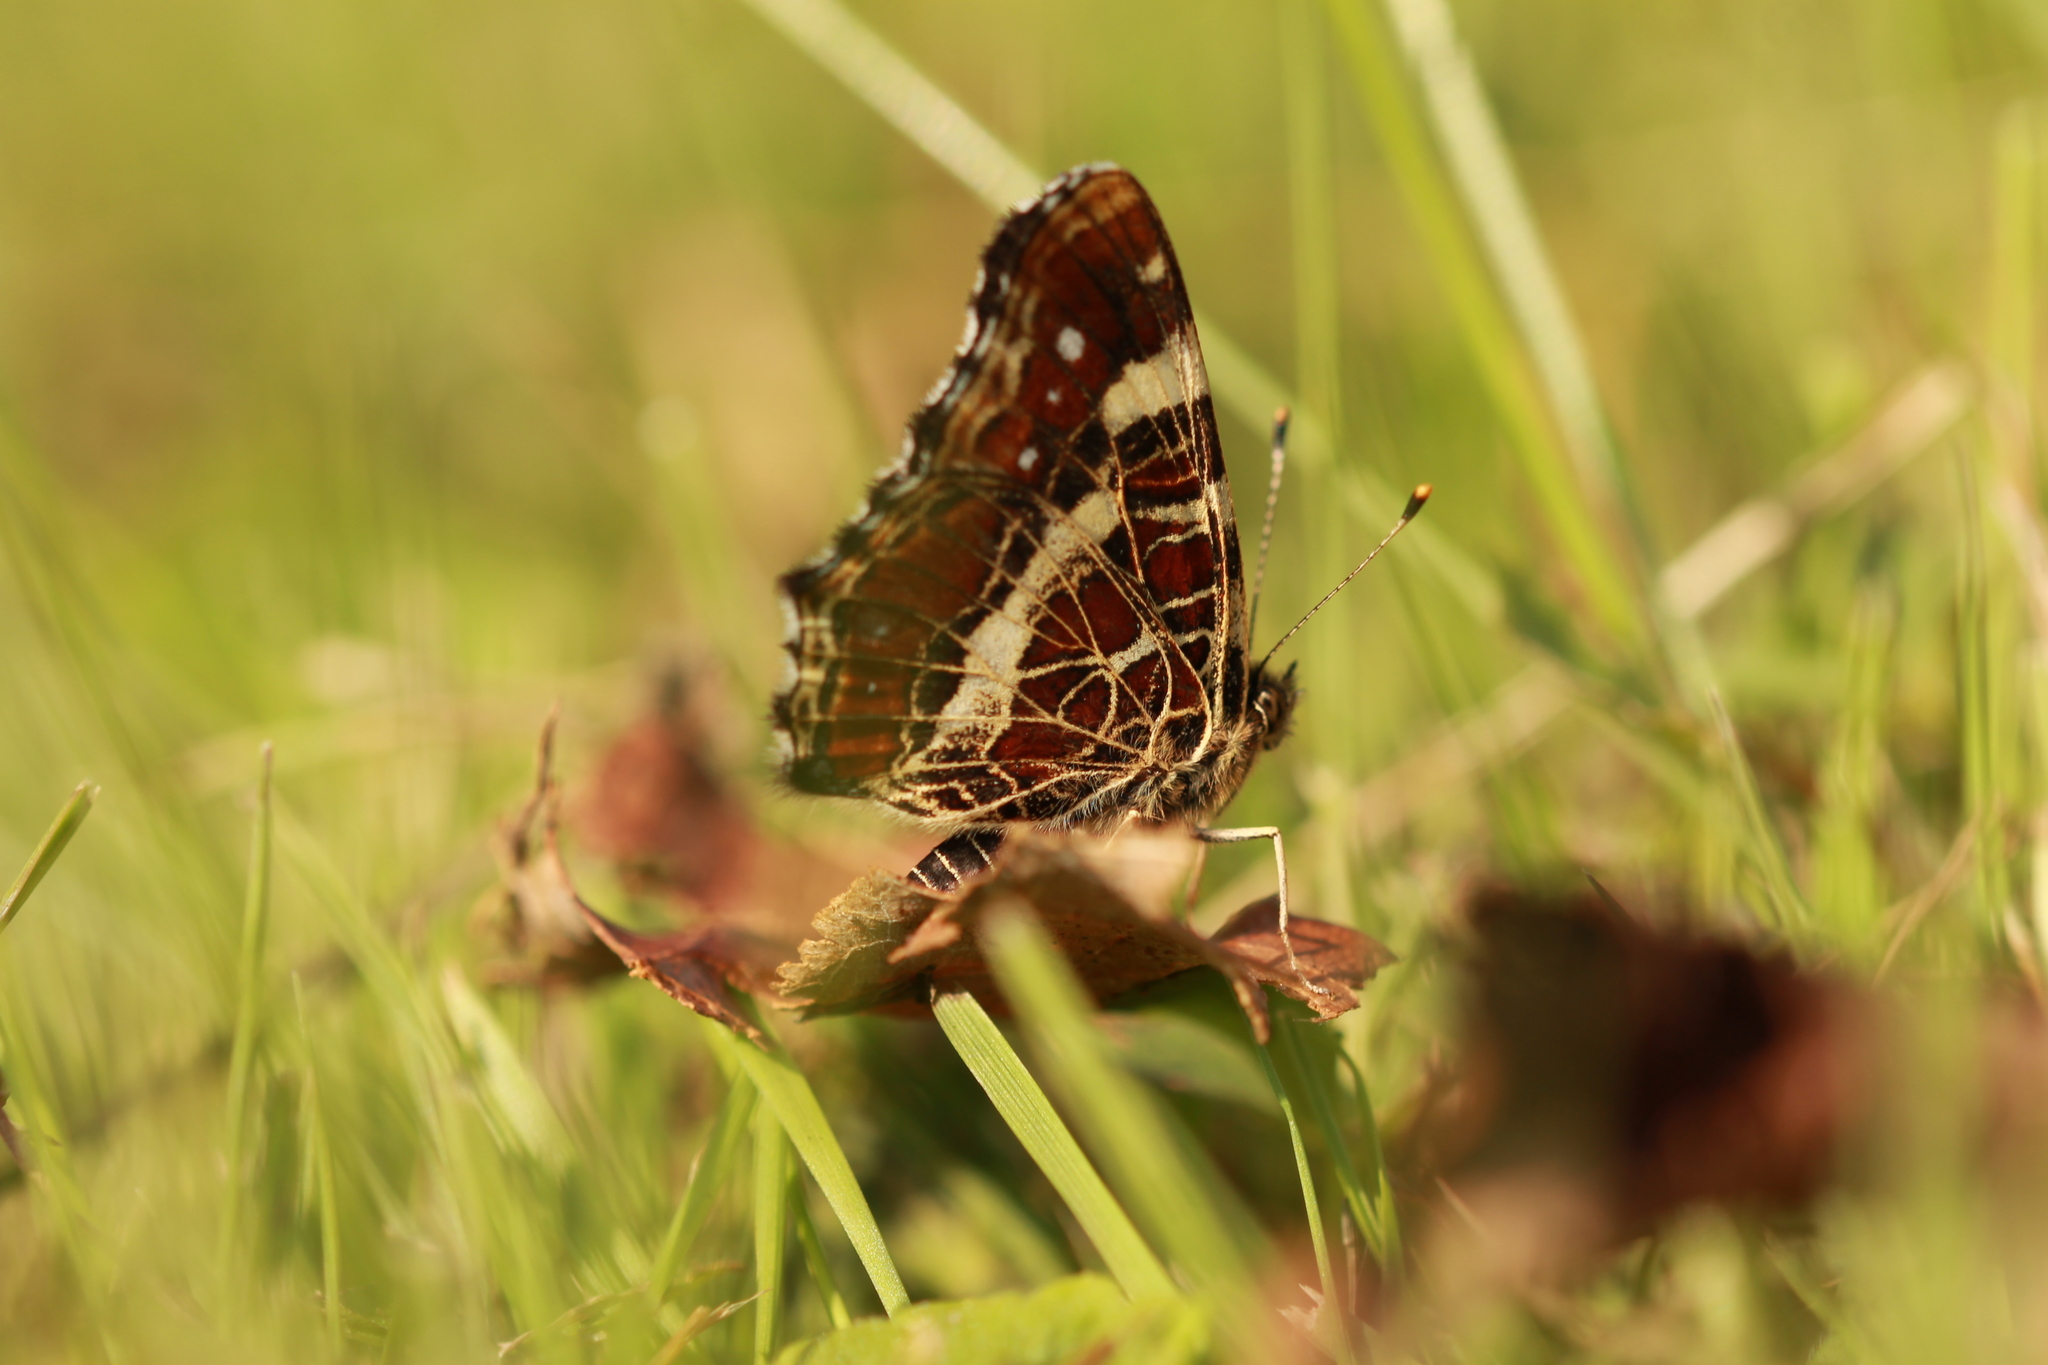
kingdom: Animalia
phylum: Arthropoda
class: Insecta
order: Lepidoptera
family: Nymphalidae
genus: Araschnia
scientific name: Araschnia levana
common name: Map butterfly
